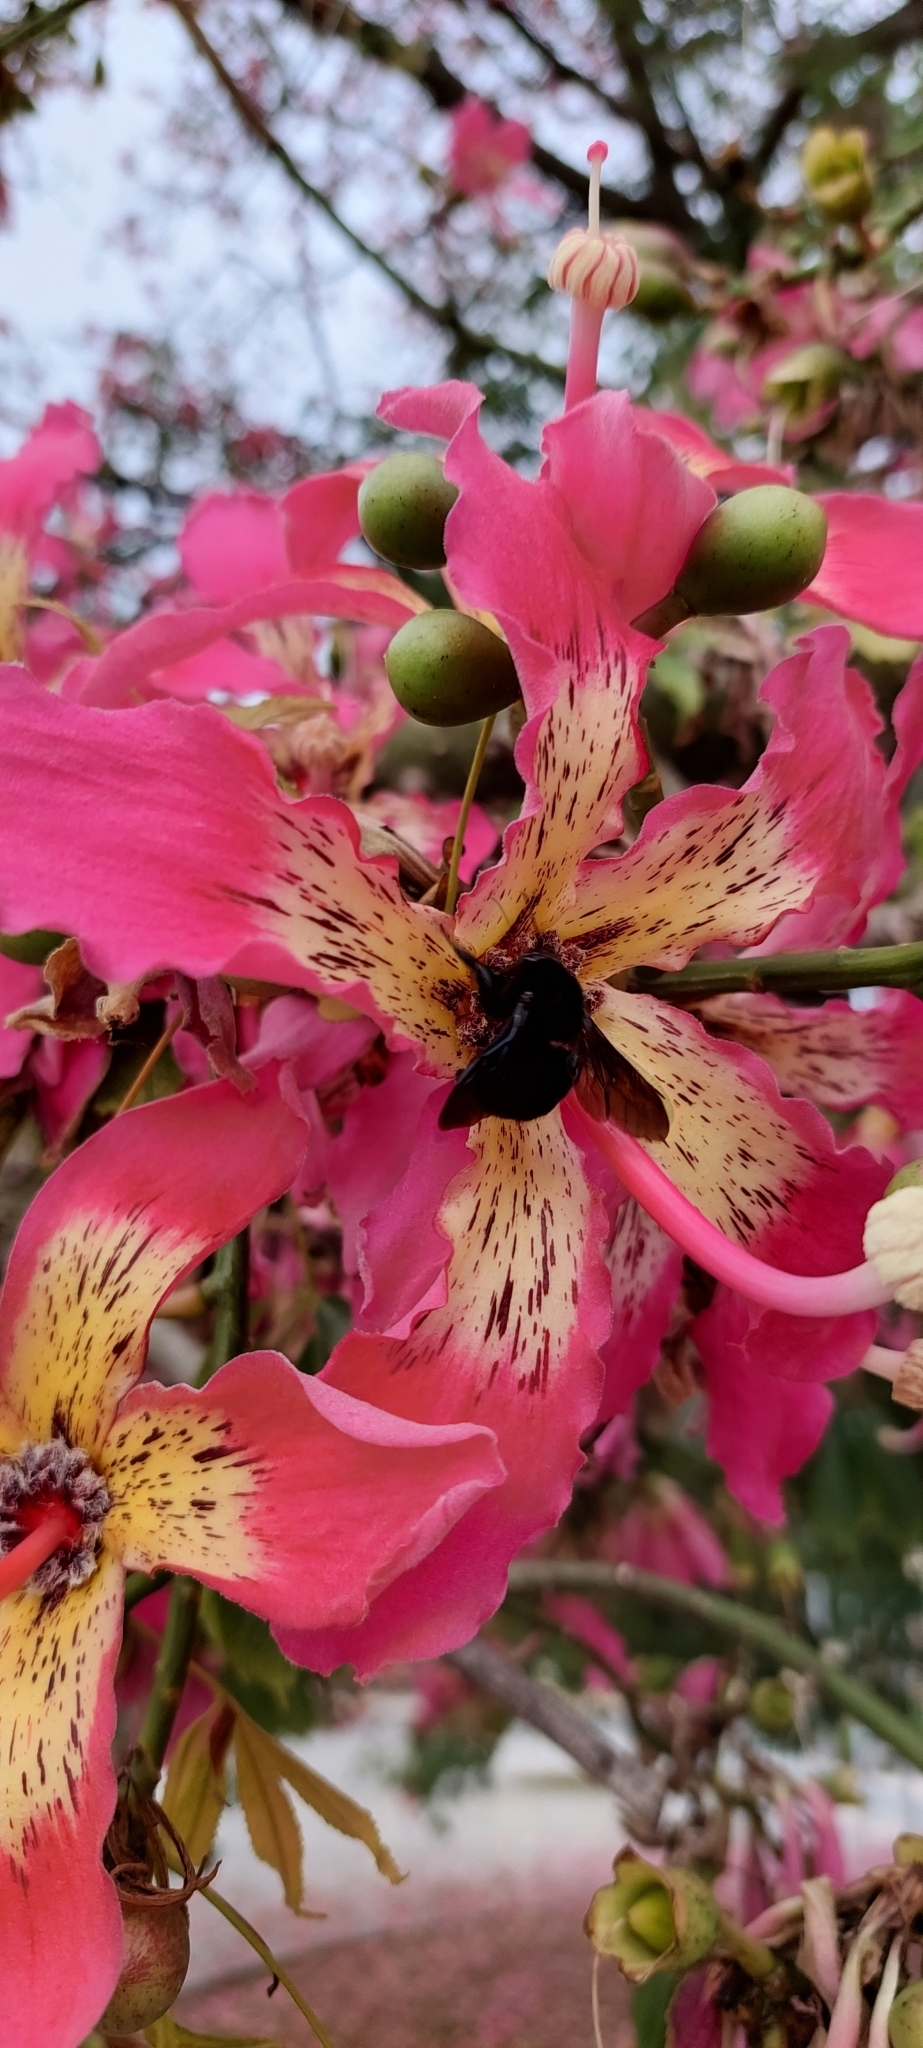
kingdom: Animalia
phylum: Arthropoda
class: Insecta
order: Hymenoptera
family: Apidae
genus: Bombus
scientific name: Bombus pauloensis
